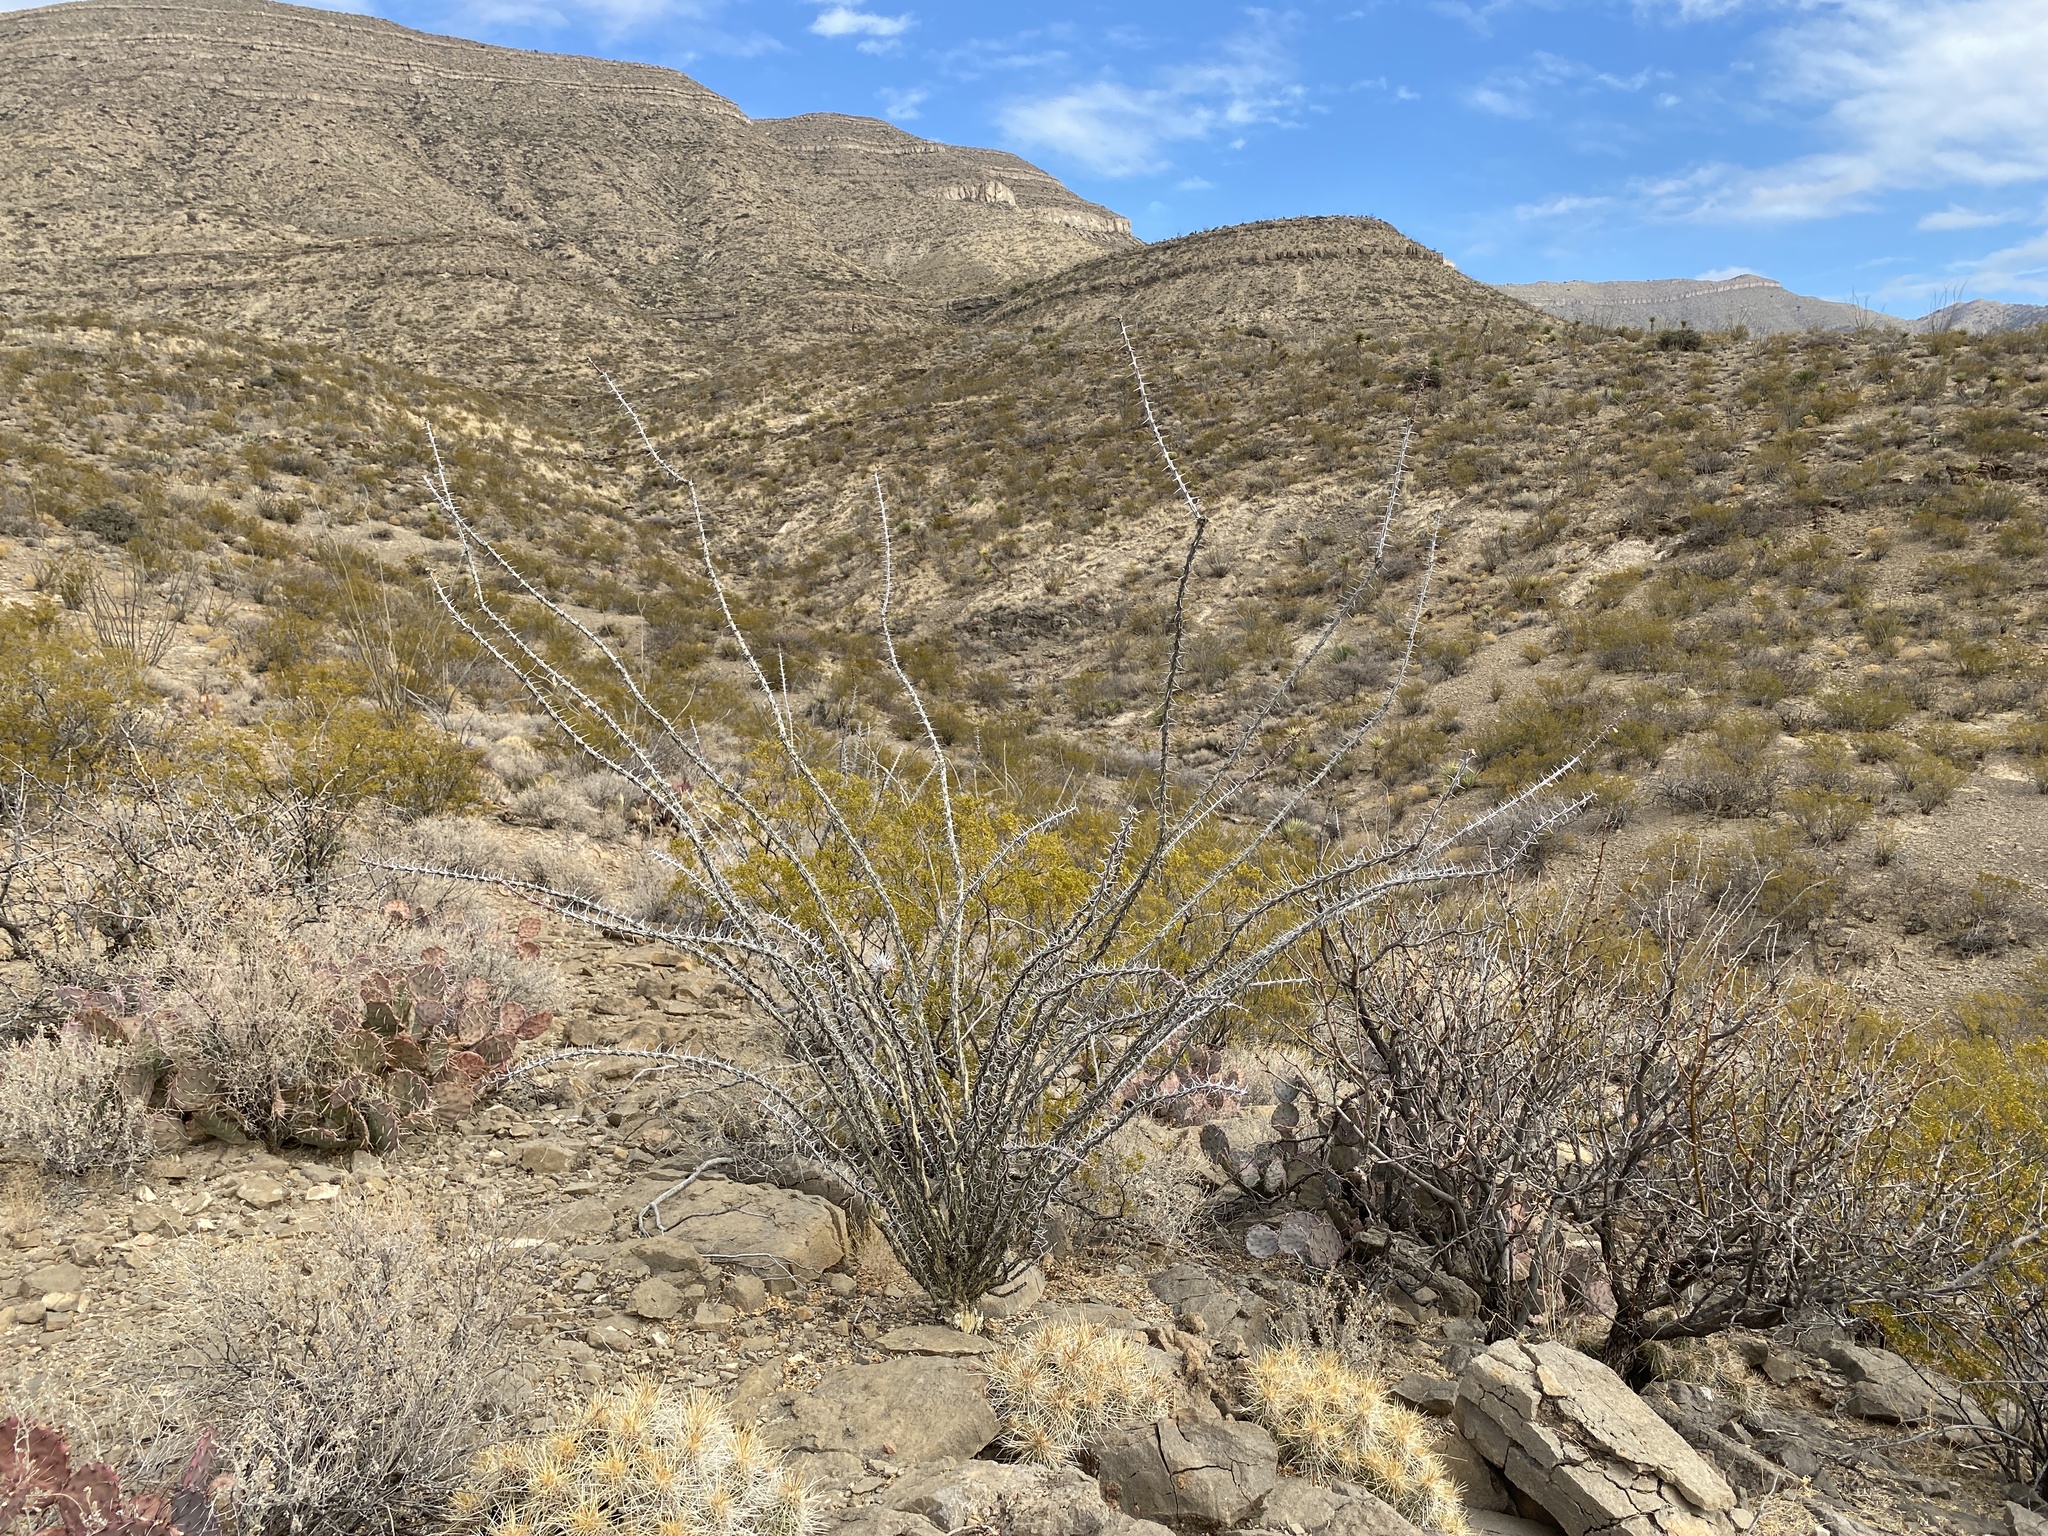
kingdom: Plantae
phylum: Tracheophyta
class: Magnoliopsida
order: Ericales
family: Fouquieriaceae
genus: Fouquieria
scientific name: Fouquieria splendens
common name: Vine-cactus
